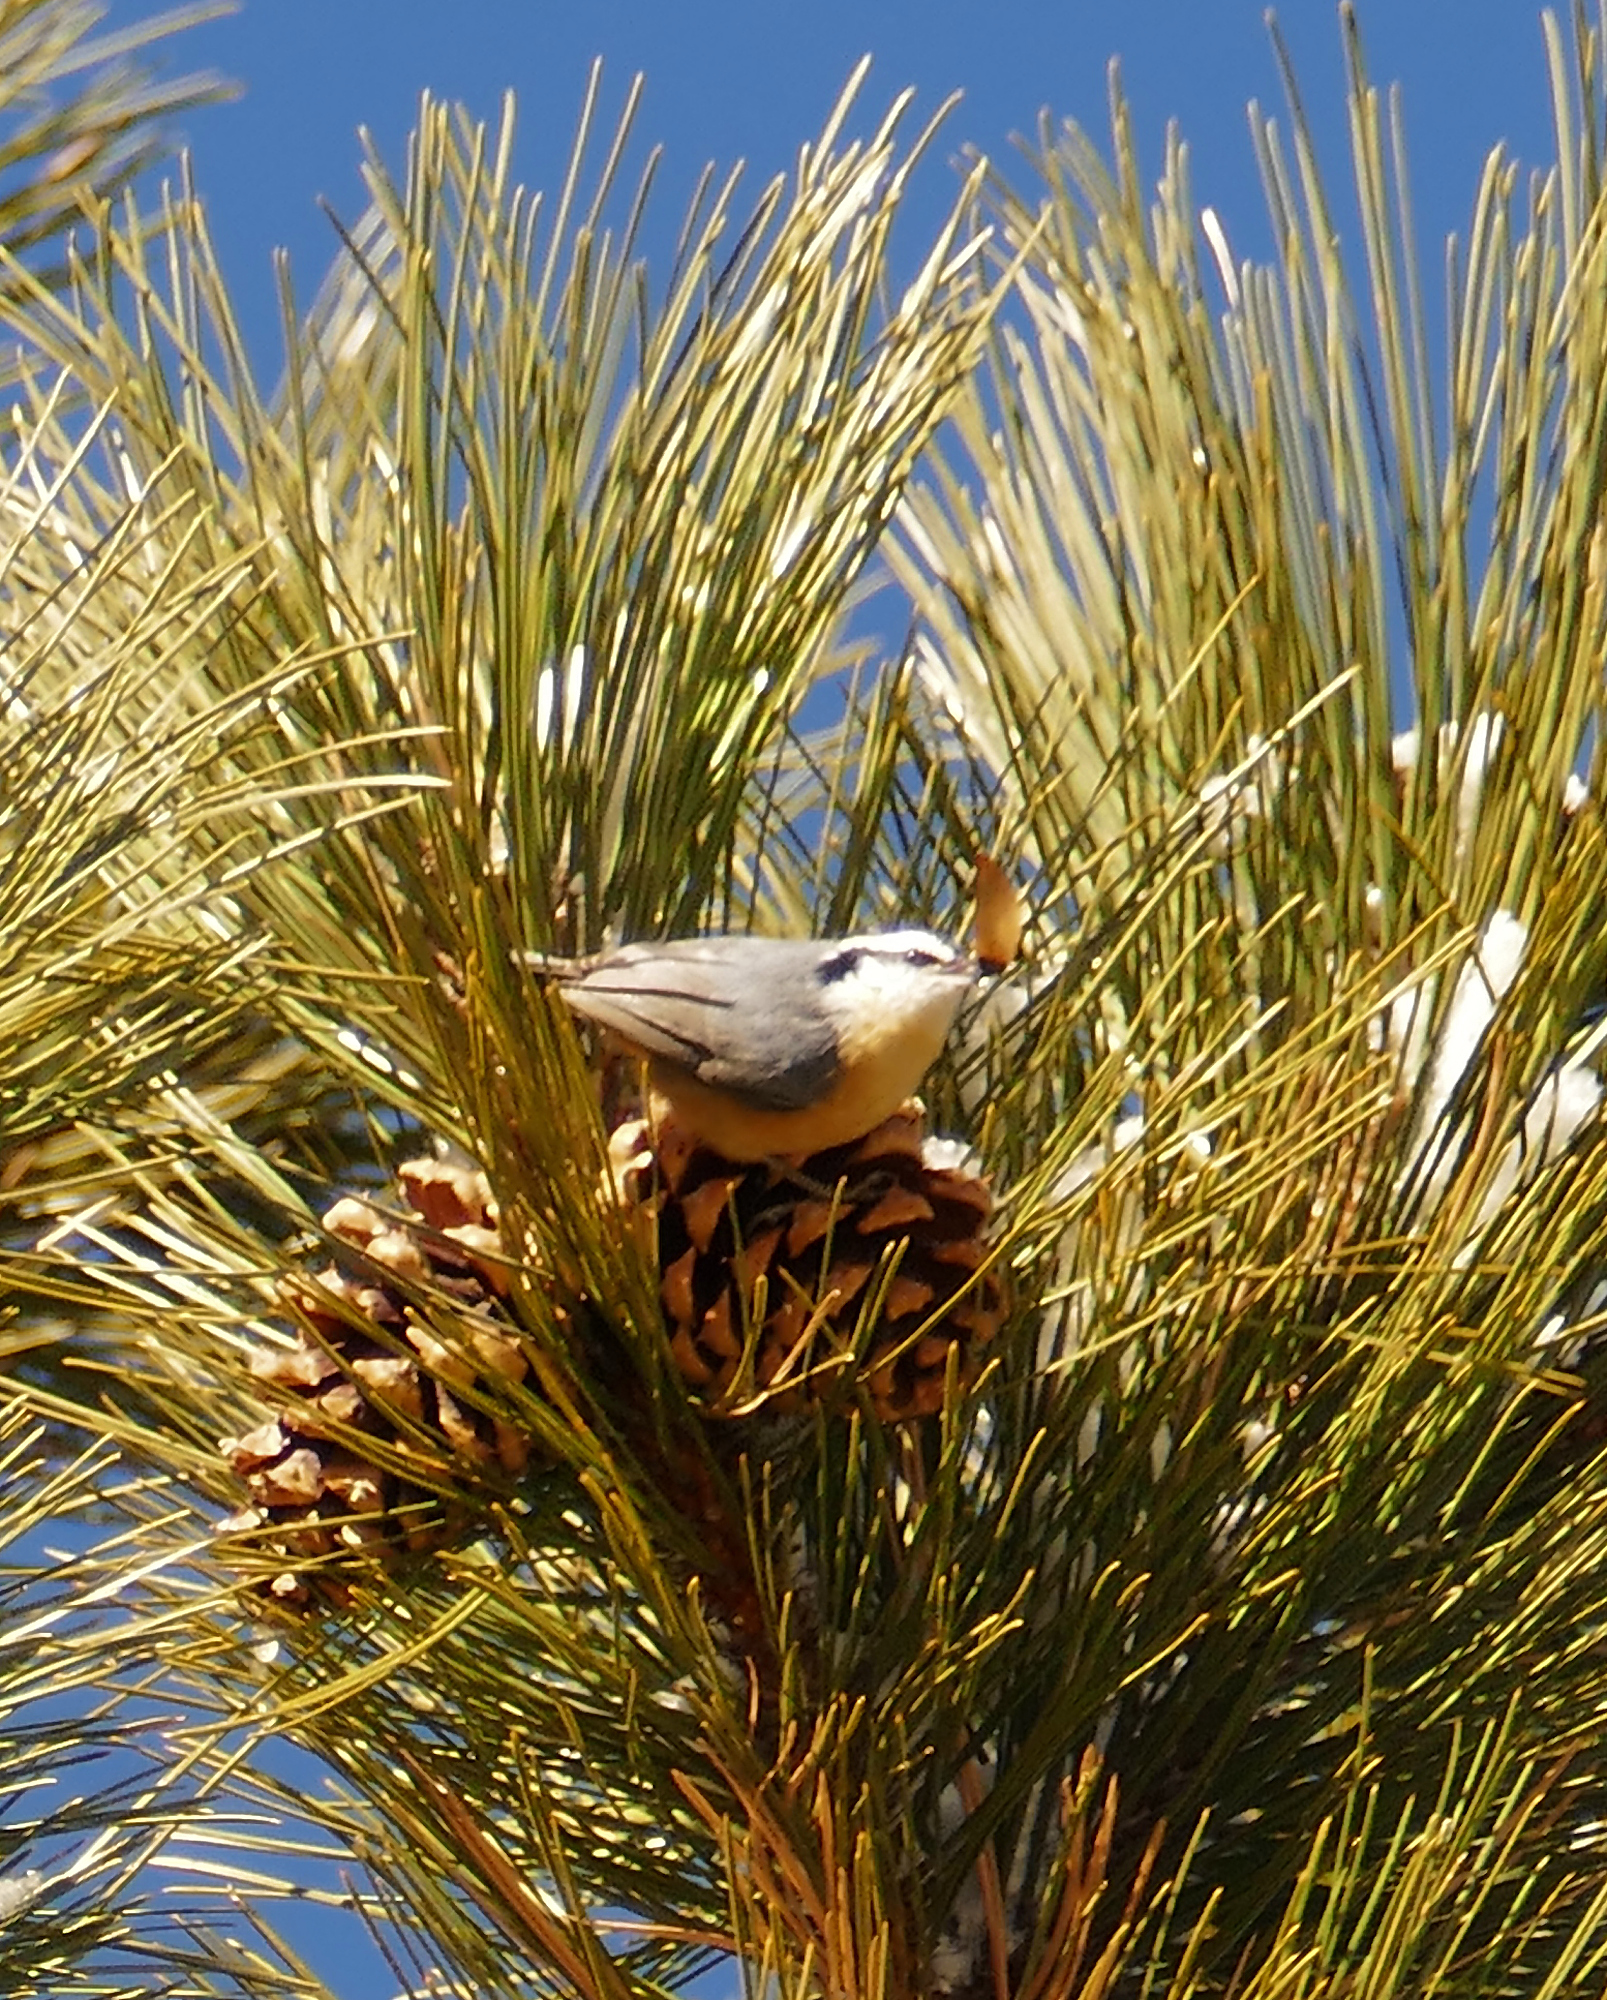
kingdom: Animalia
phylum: Chordata
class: Aves
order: Passeriformes
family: Sittidae
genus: Sitta
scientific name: Sitta canadensis
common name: Red-breasted nuthatch
